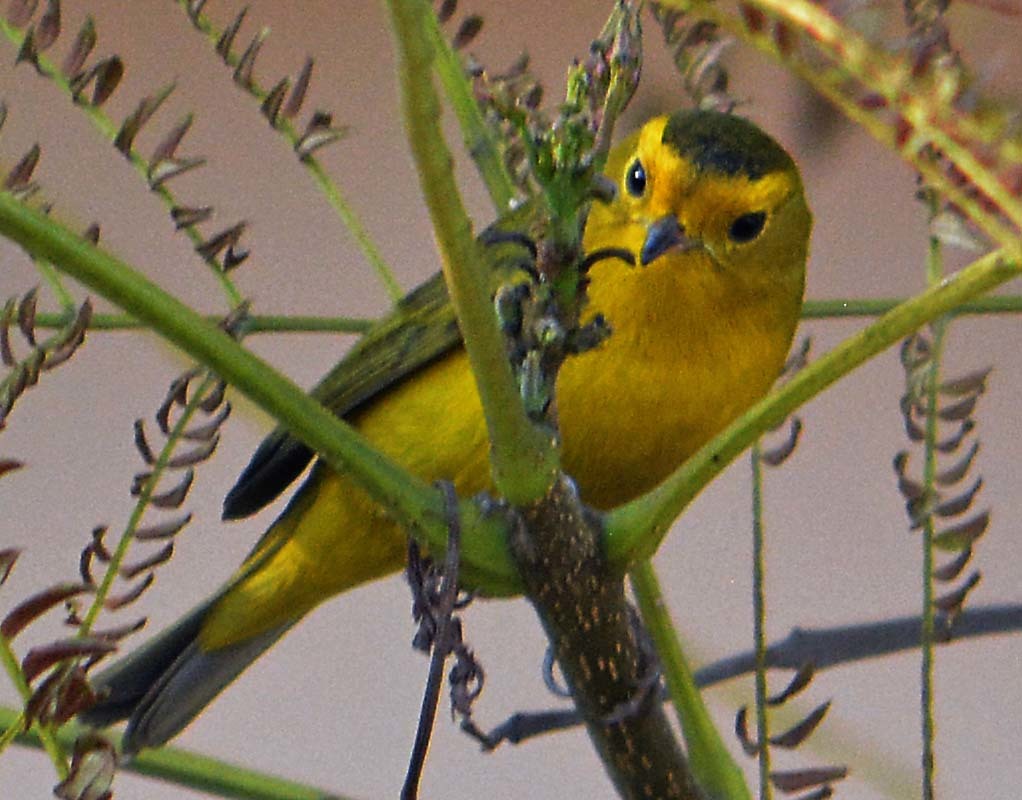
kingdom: Animalia
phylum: Chordata
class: Aves
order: Passeriformes
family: Parulidae
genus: Cardellina
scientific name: Cardellina pusilla
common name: Wilson's warbler
